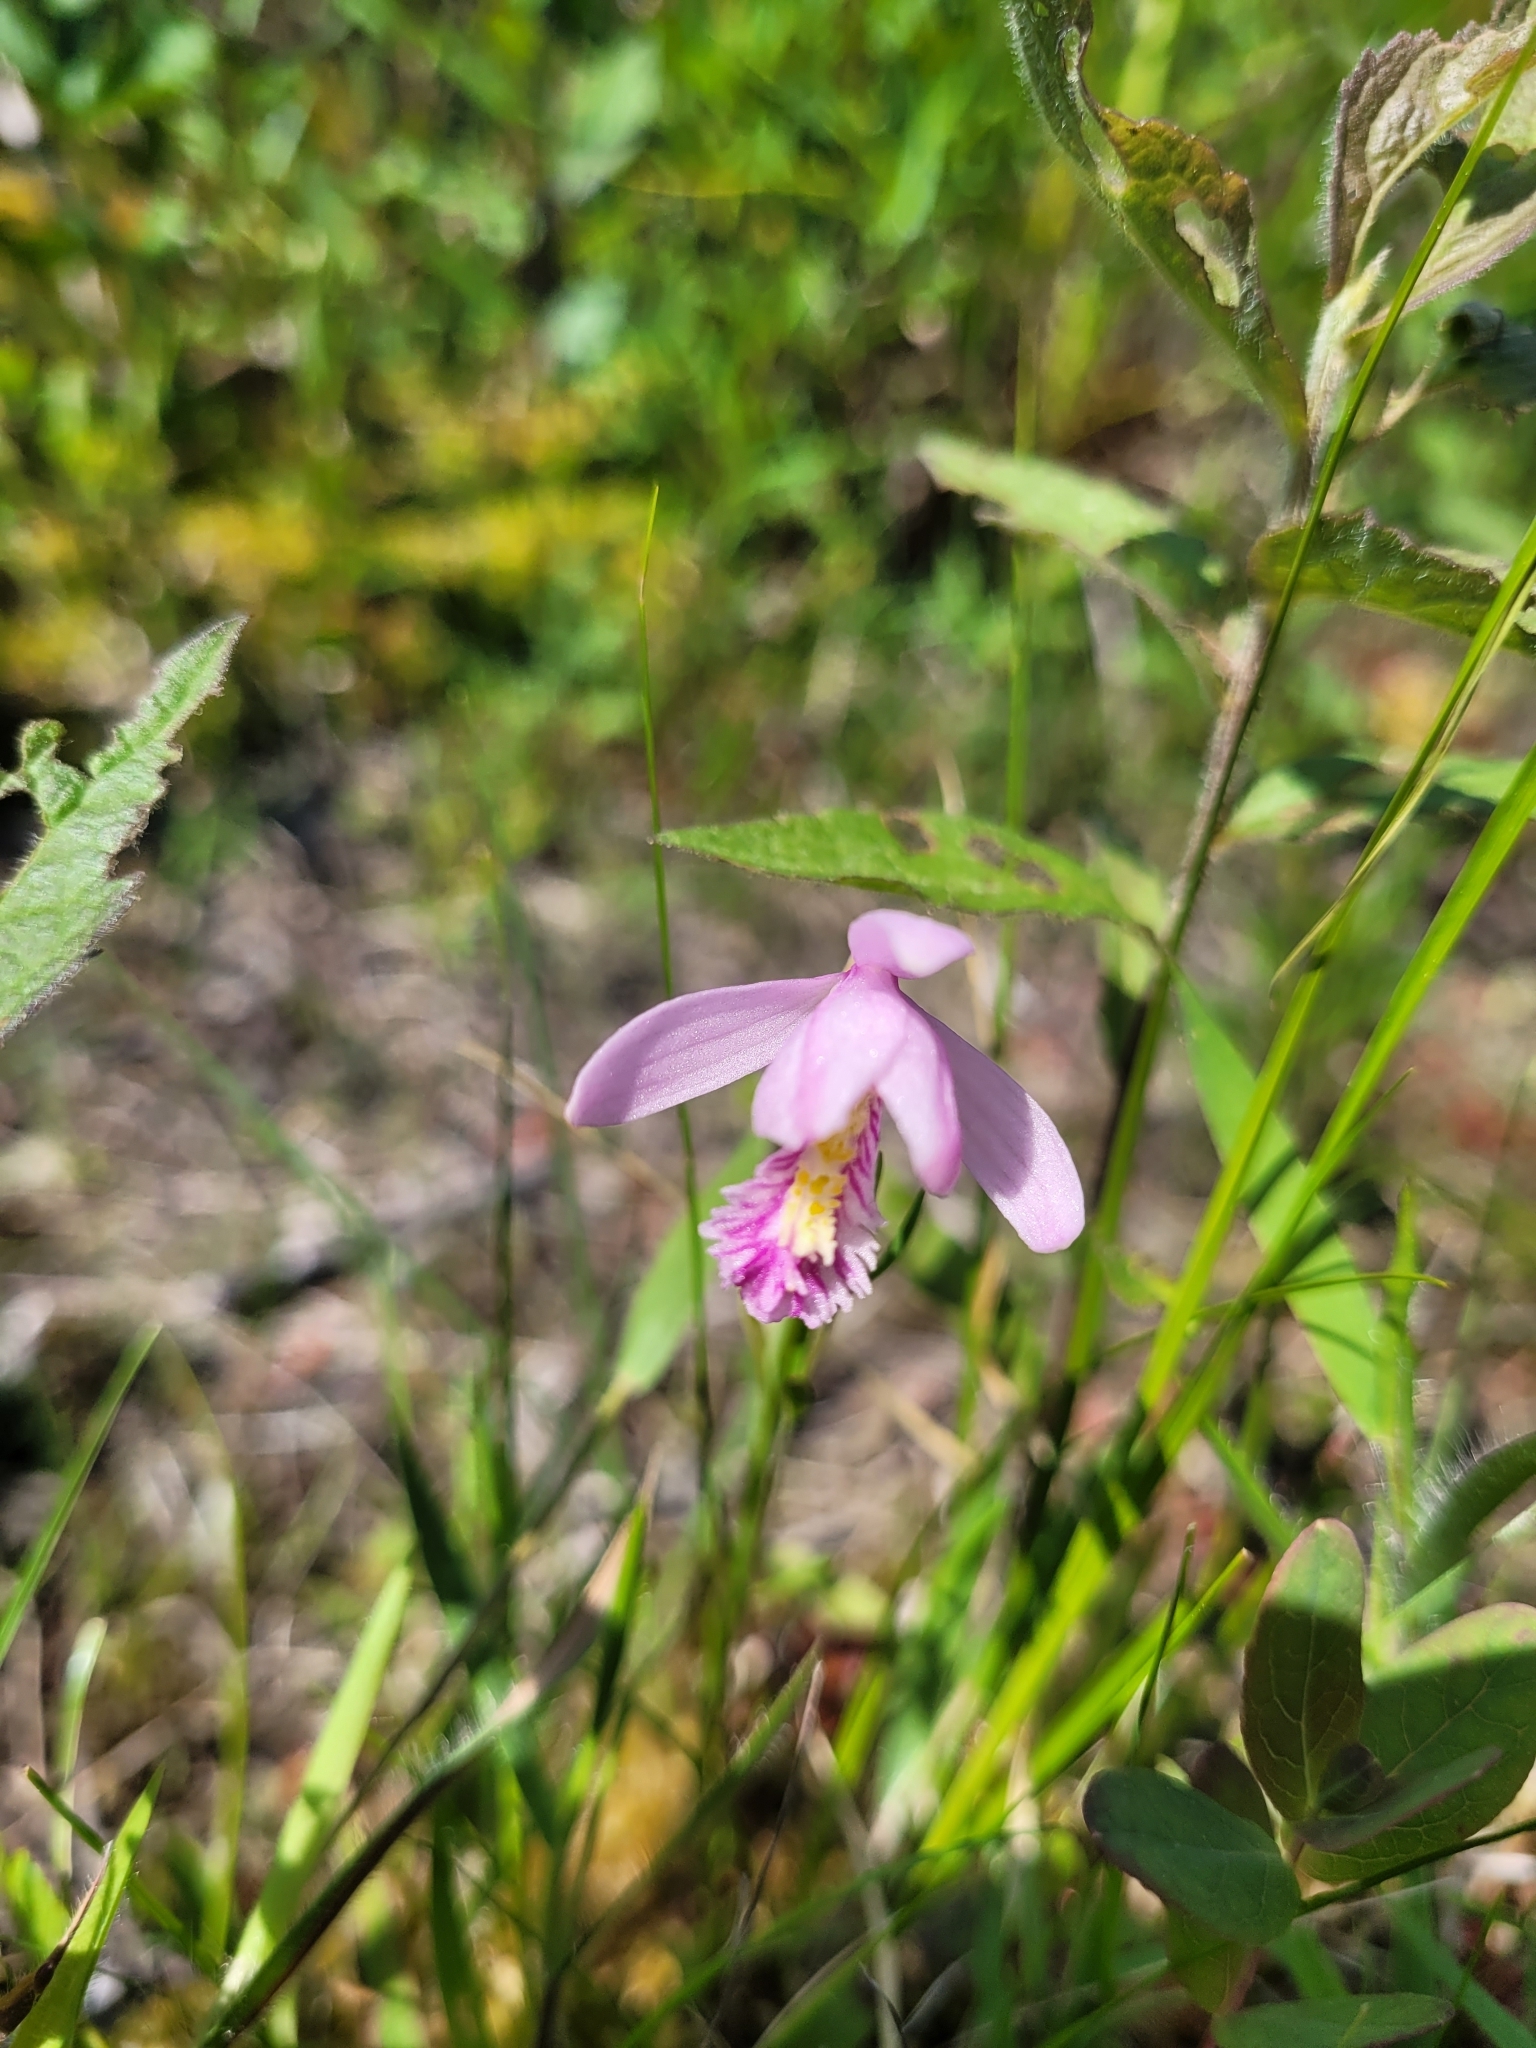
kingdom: Plantae
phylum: Tracheophyta
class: Liliopsida
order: Asparagales
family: Orchidaceae
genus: Pogonia
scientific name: Pogonia ophioglossoides
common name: Rose pogonia
